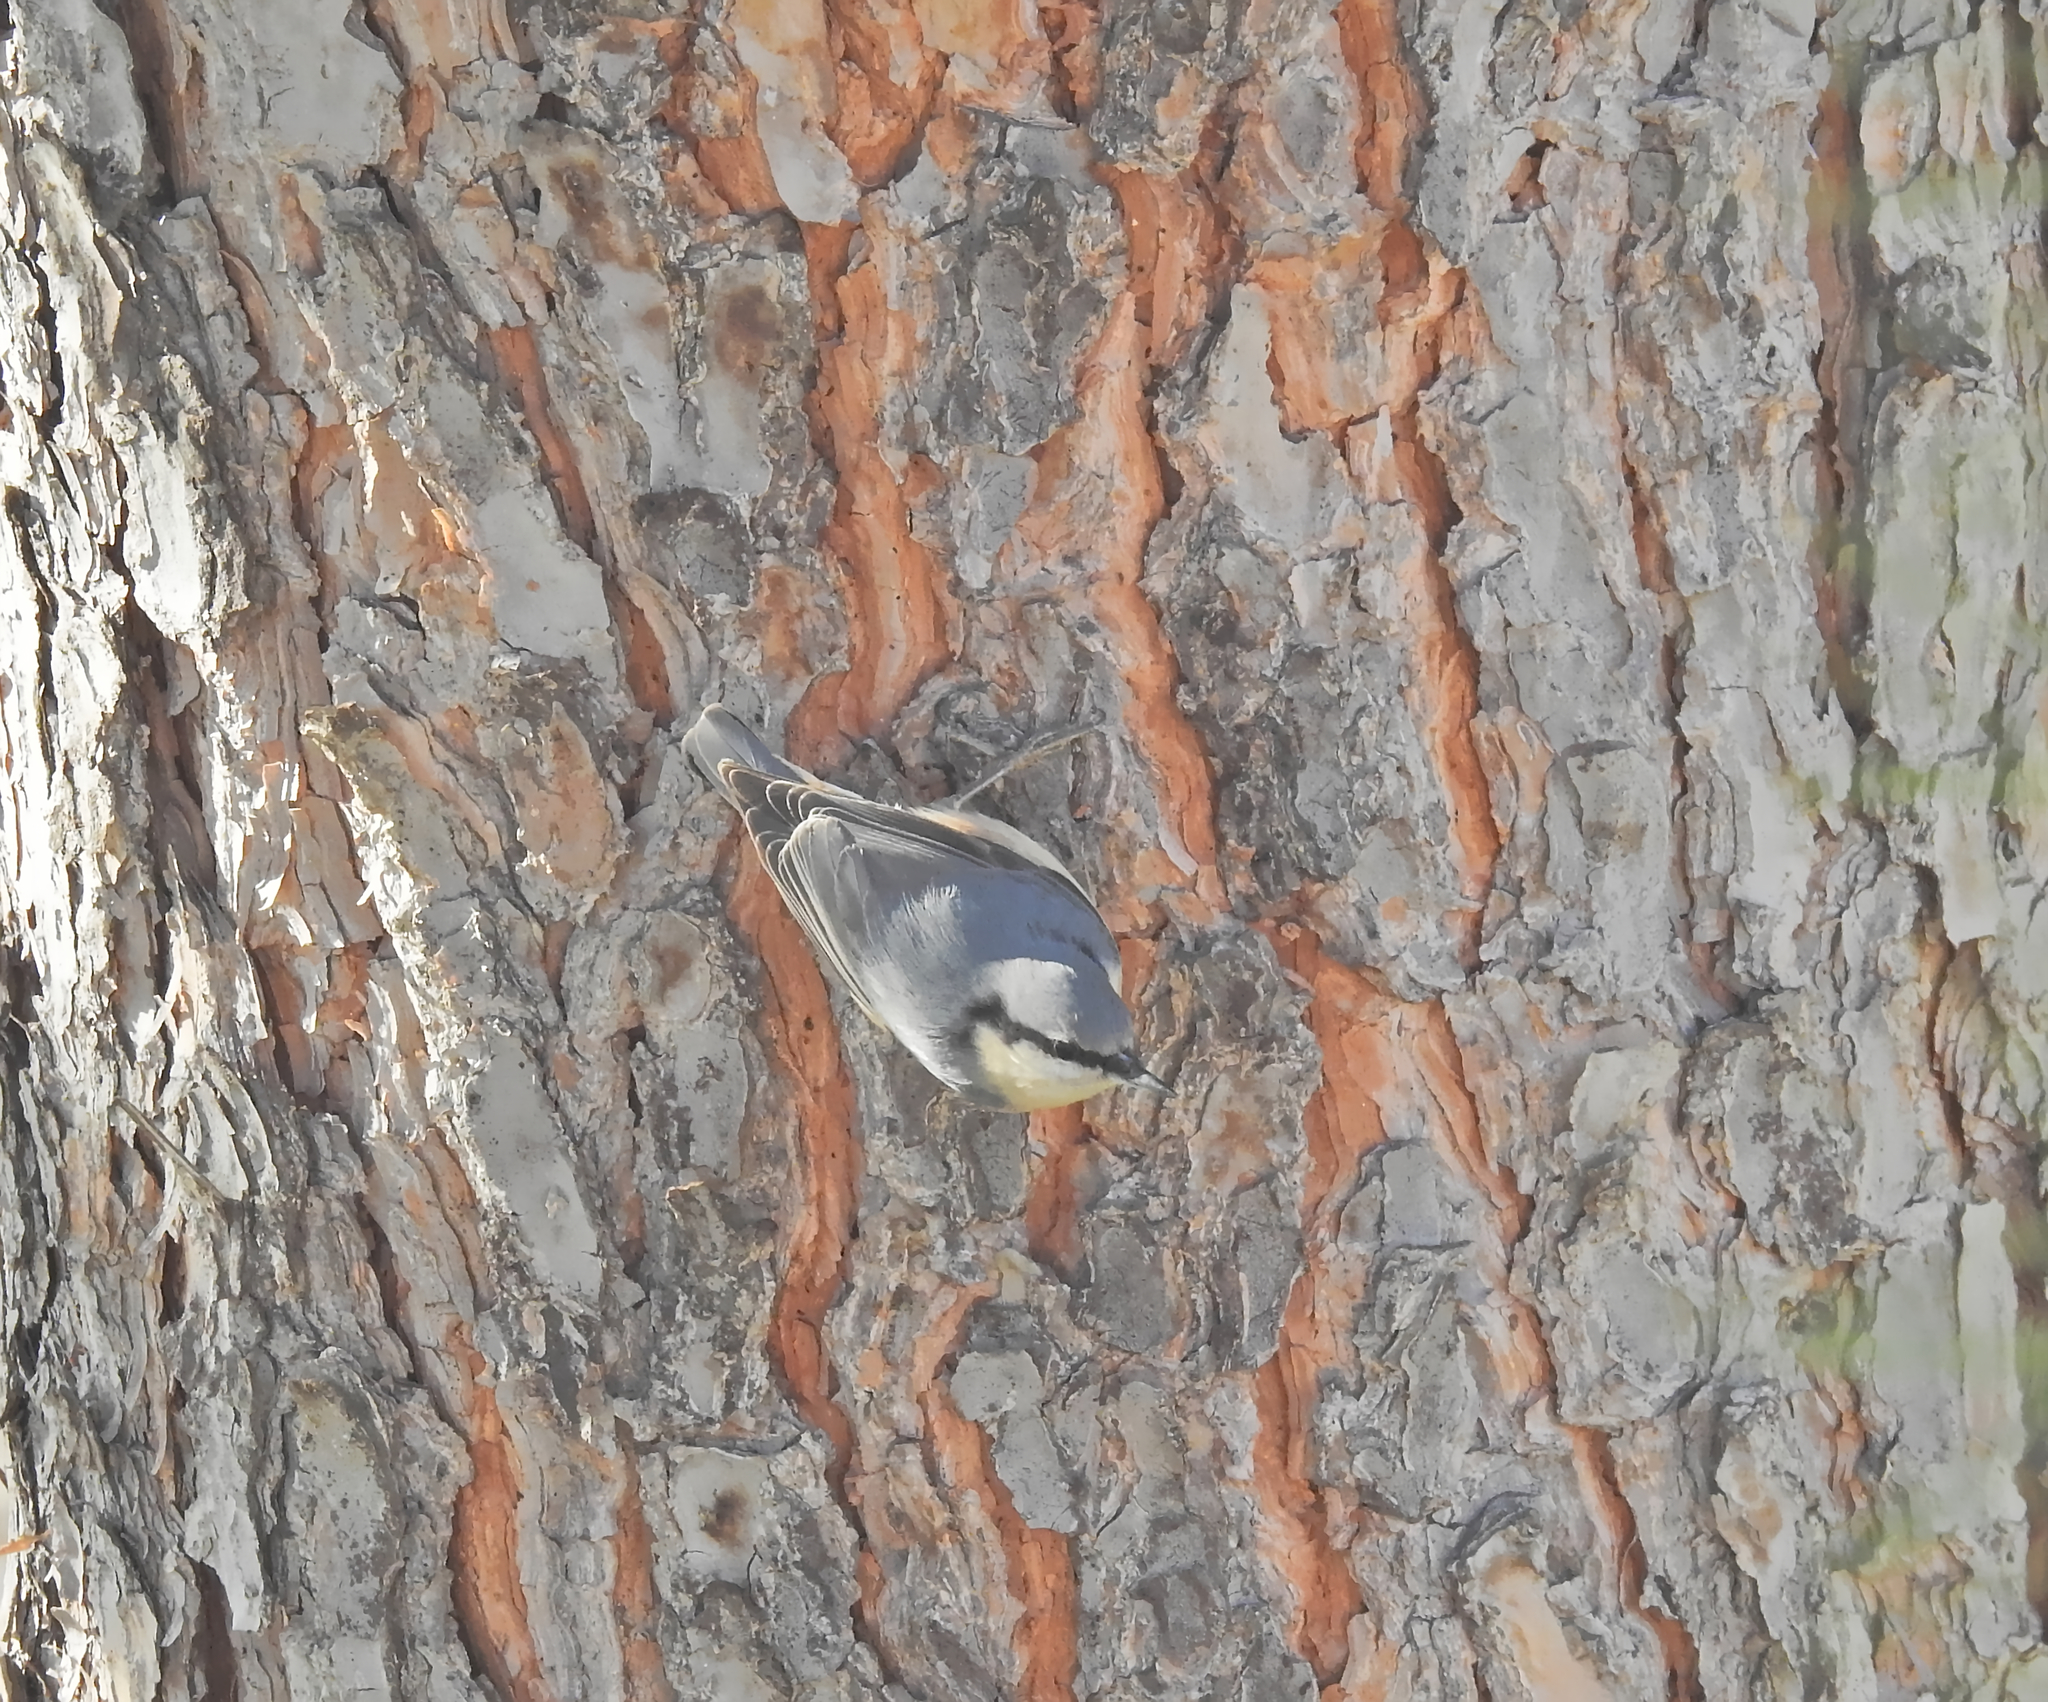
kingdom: Animalia
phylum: Chordata
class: Aves
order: Passeriformes
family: Sittidae
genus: Sitta
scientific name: Sitta europaea
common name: Eurasian nuthatch
